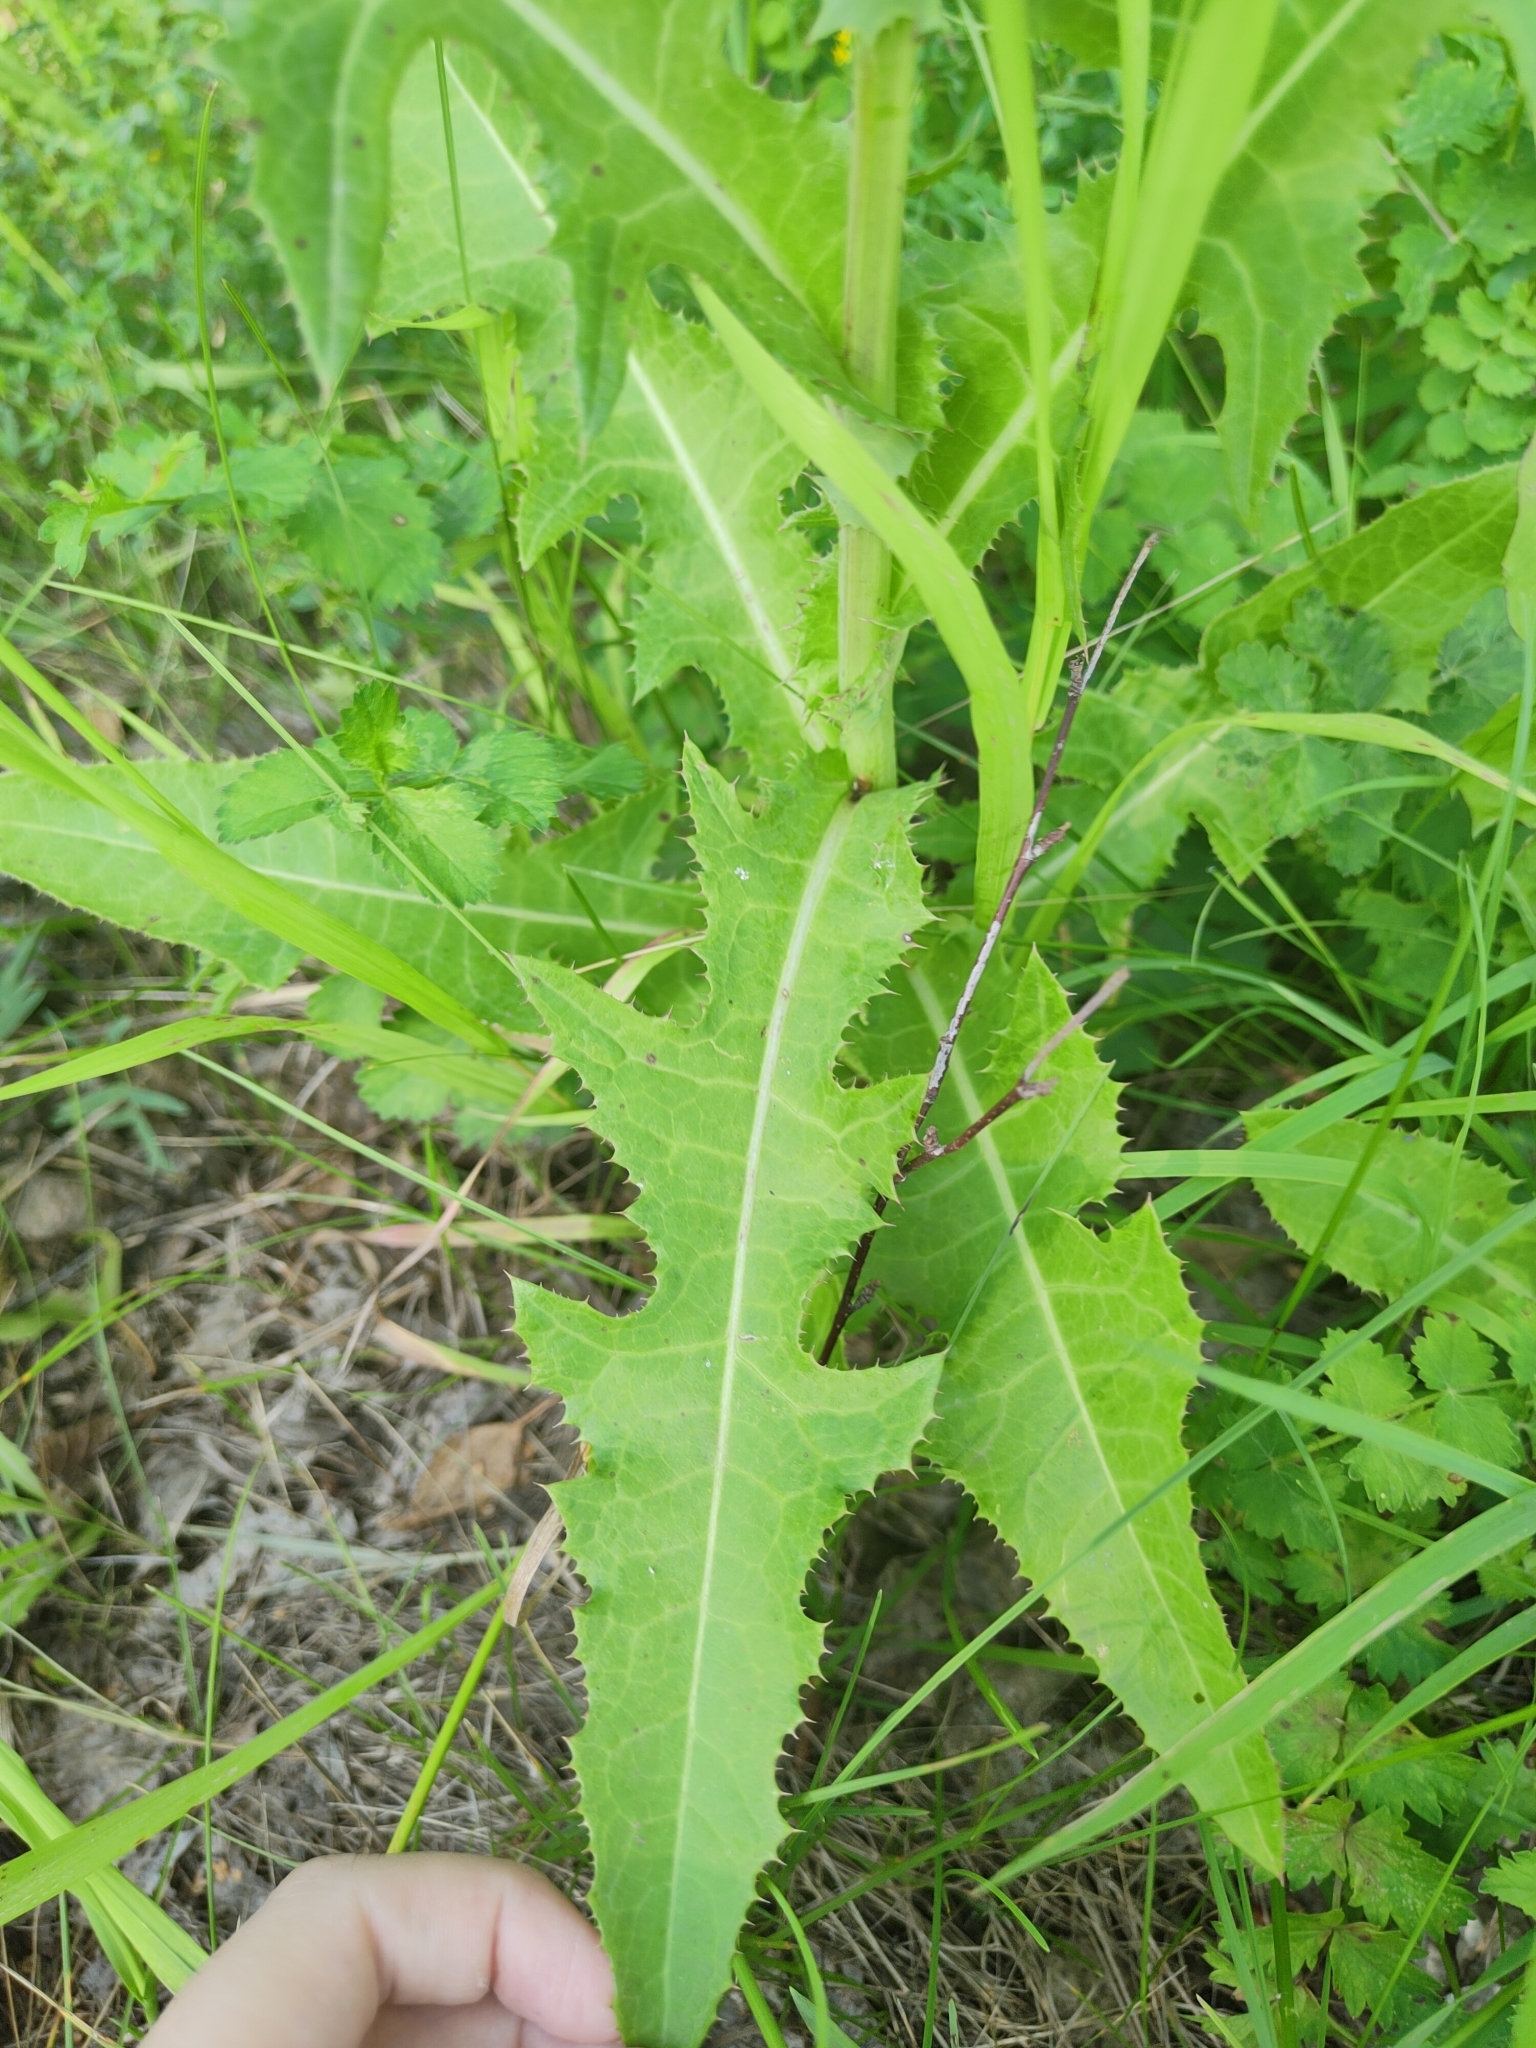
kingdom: Plantae
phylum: Tracheophyta
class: Magnoliopsida
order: Asterales
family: Asteraceae
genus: Sonchus
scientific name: Sonchus arvensis
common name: Perennial sow-thistle
